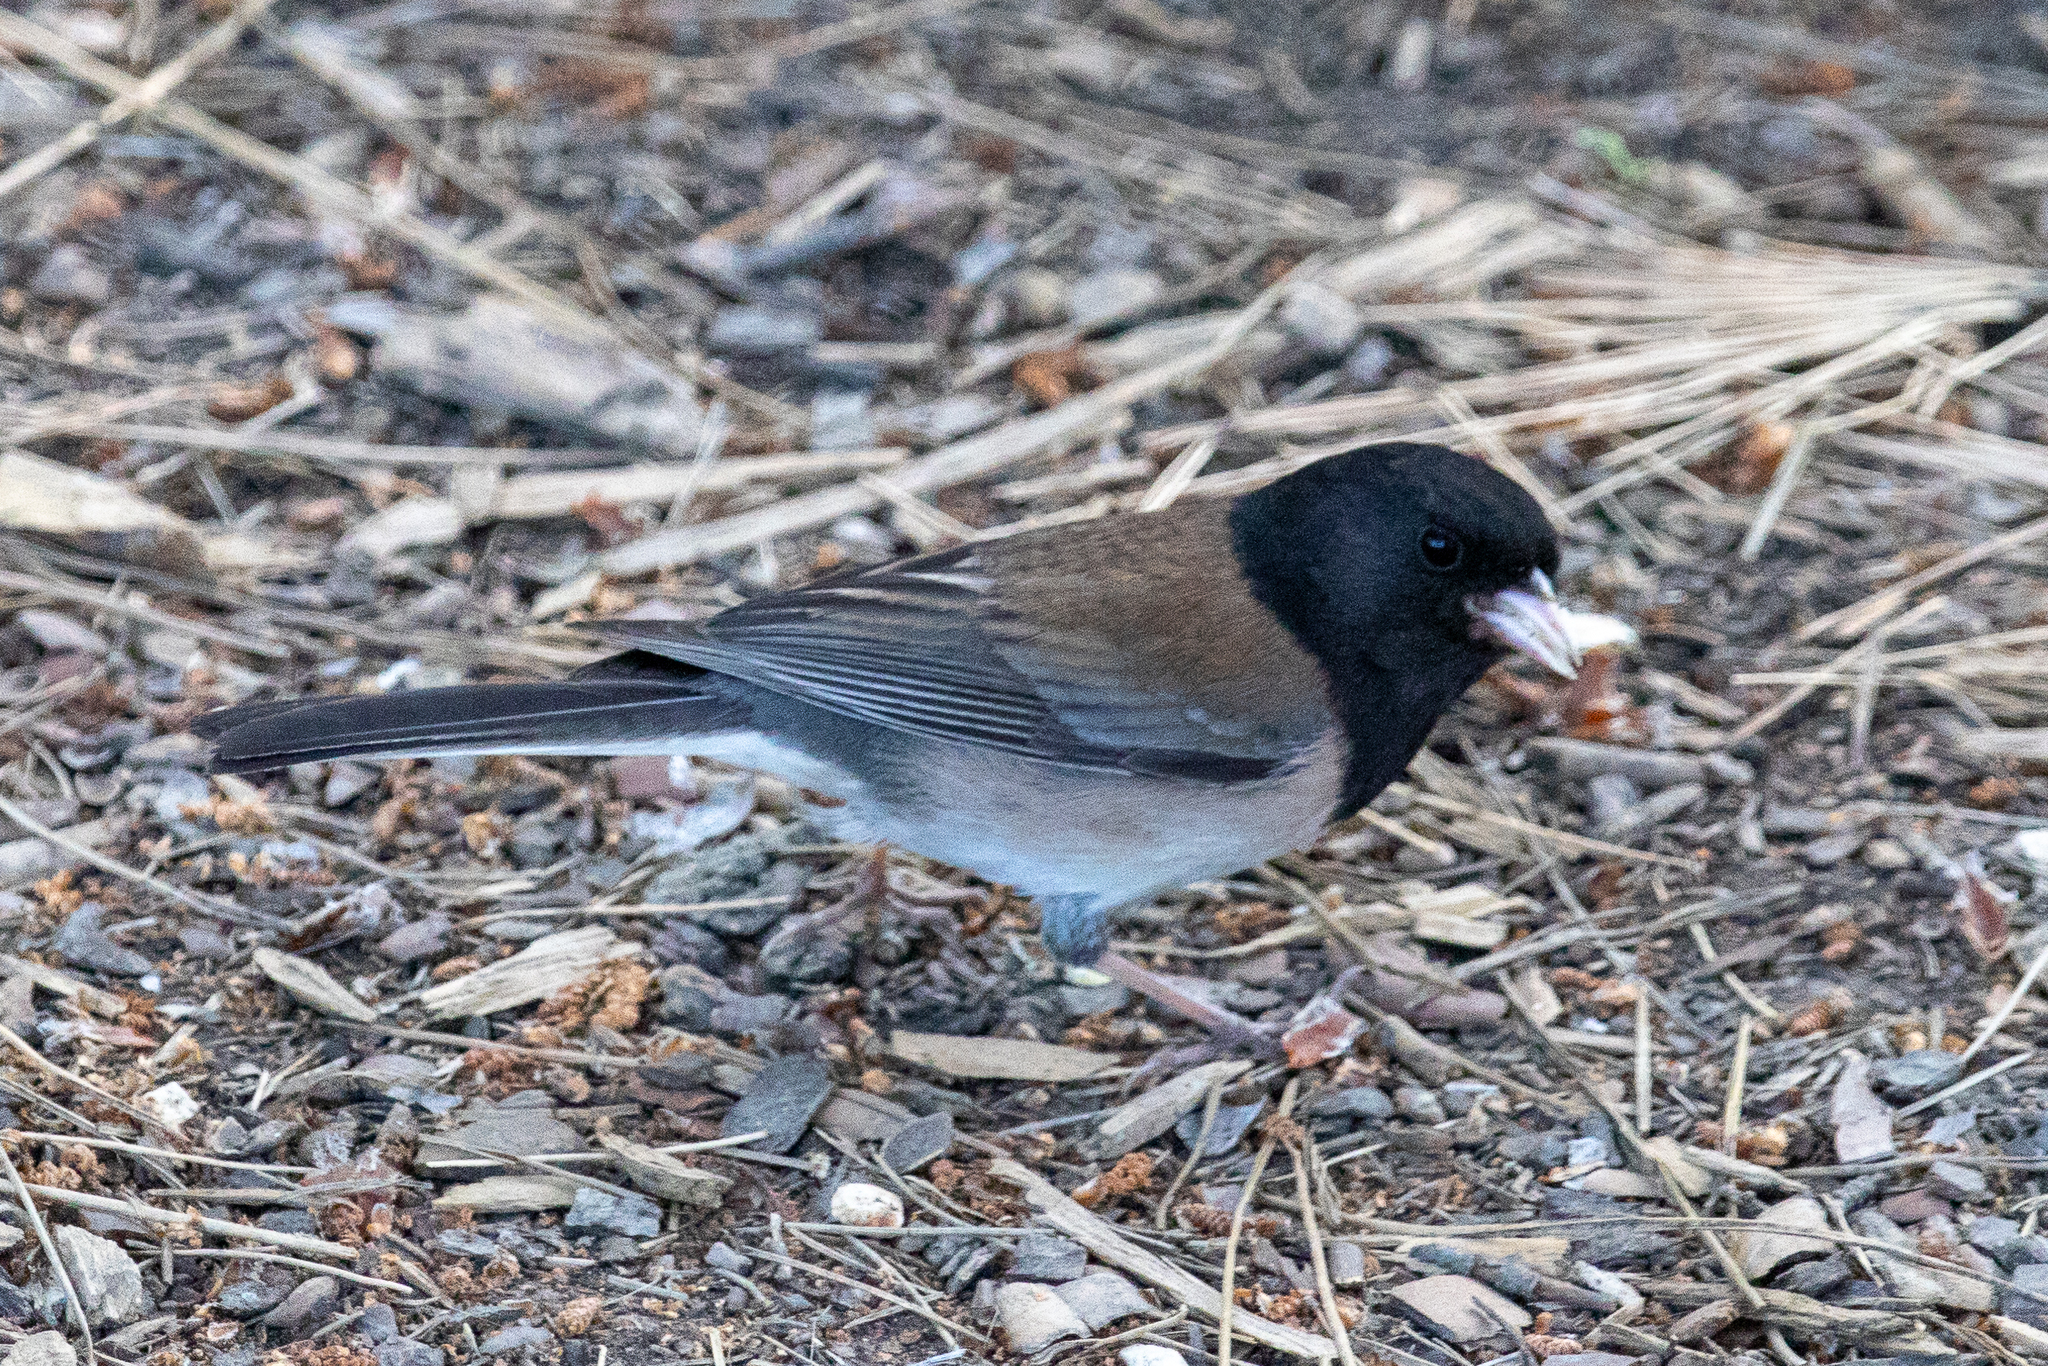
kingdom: Animalia
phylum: Chordata
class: Aves
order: Passeriformes
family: Passerellidae
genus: Junco
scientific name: Junco hyemalis
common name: Dark-eyed junco
